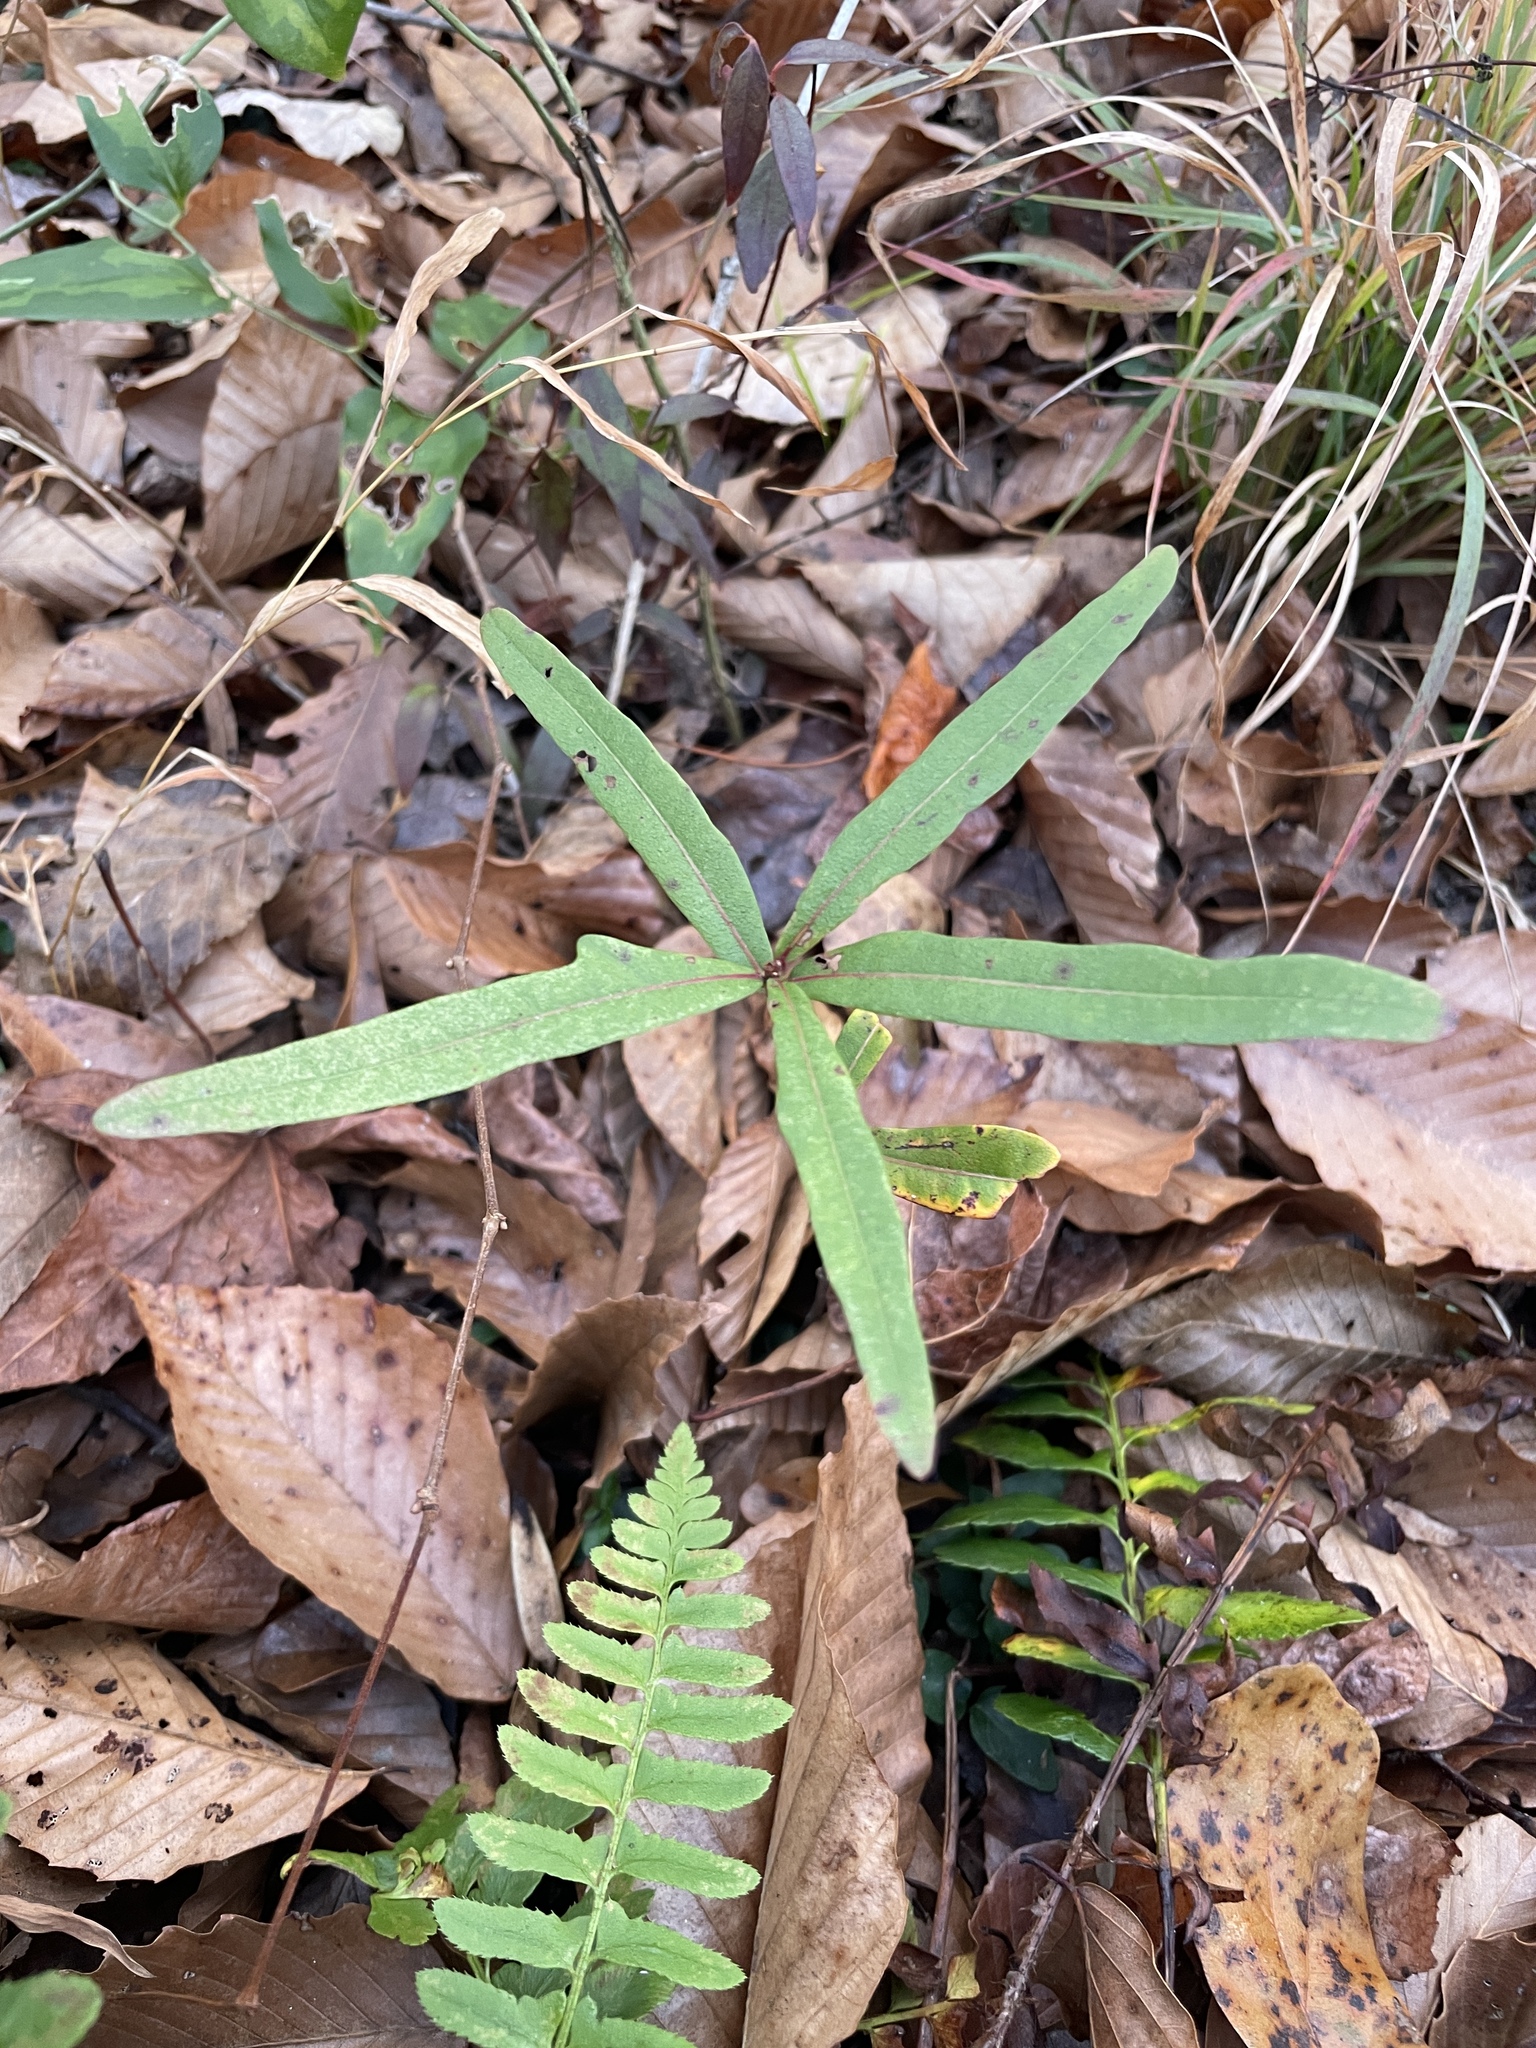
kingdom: Plantae
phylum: Tracheophyta
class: Magnoliopsida
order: Fagales
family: Fagaceae
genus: Quercus
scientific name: Quercus phellos
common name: Willow oak
